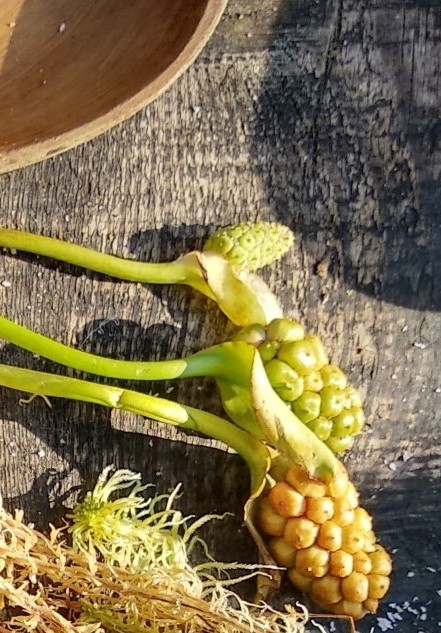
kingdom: Plantae
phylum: Tracheophyta
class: Liliopsida
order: Alismatales
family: Araceae
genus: Calla
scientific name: Calla palustris
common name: Bog arum
